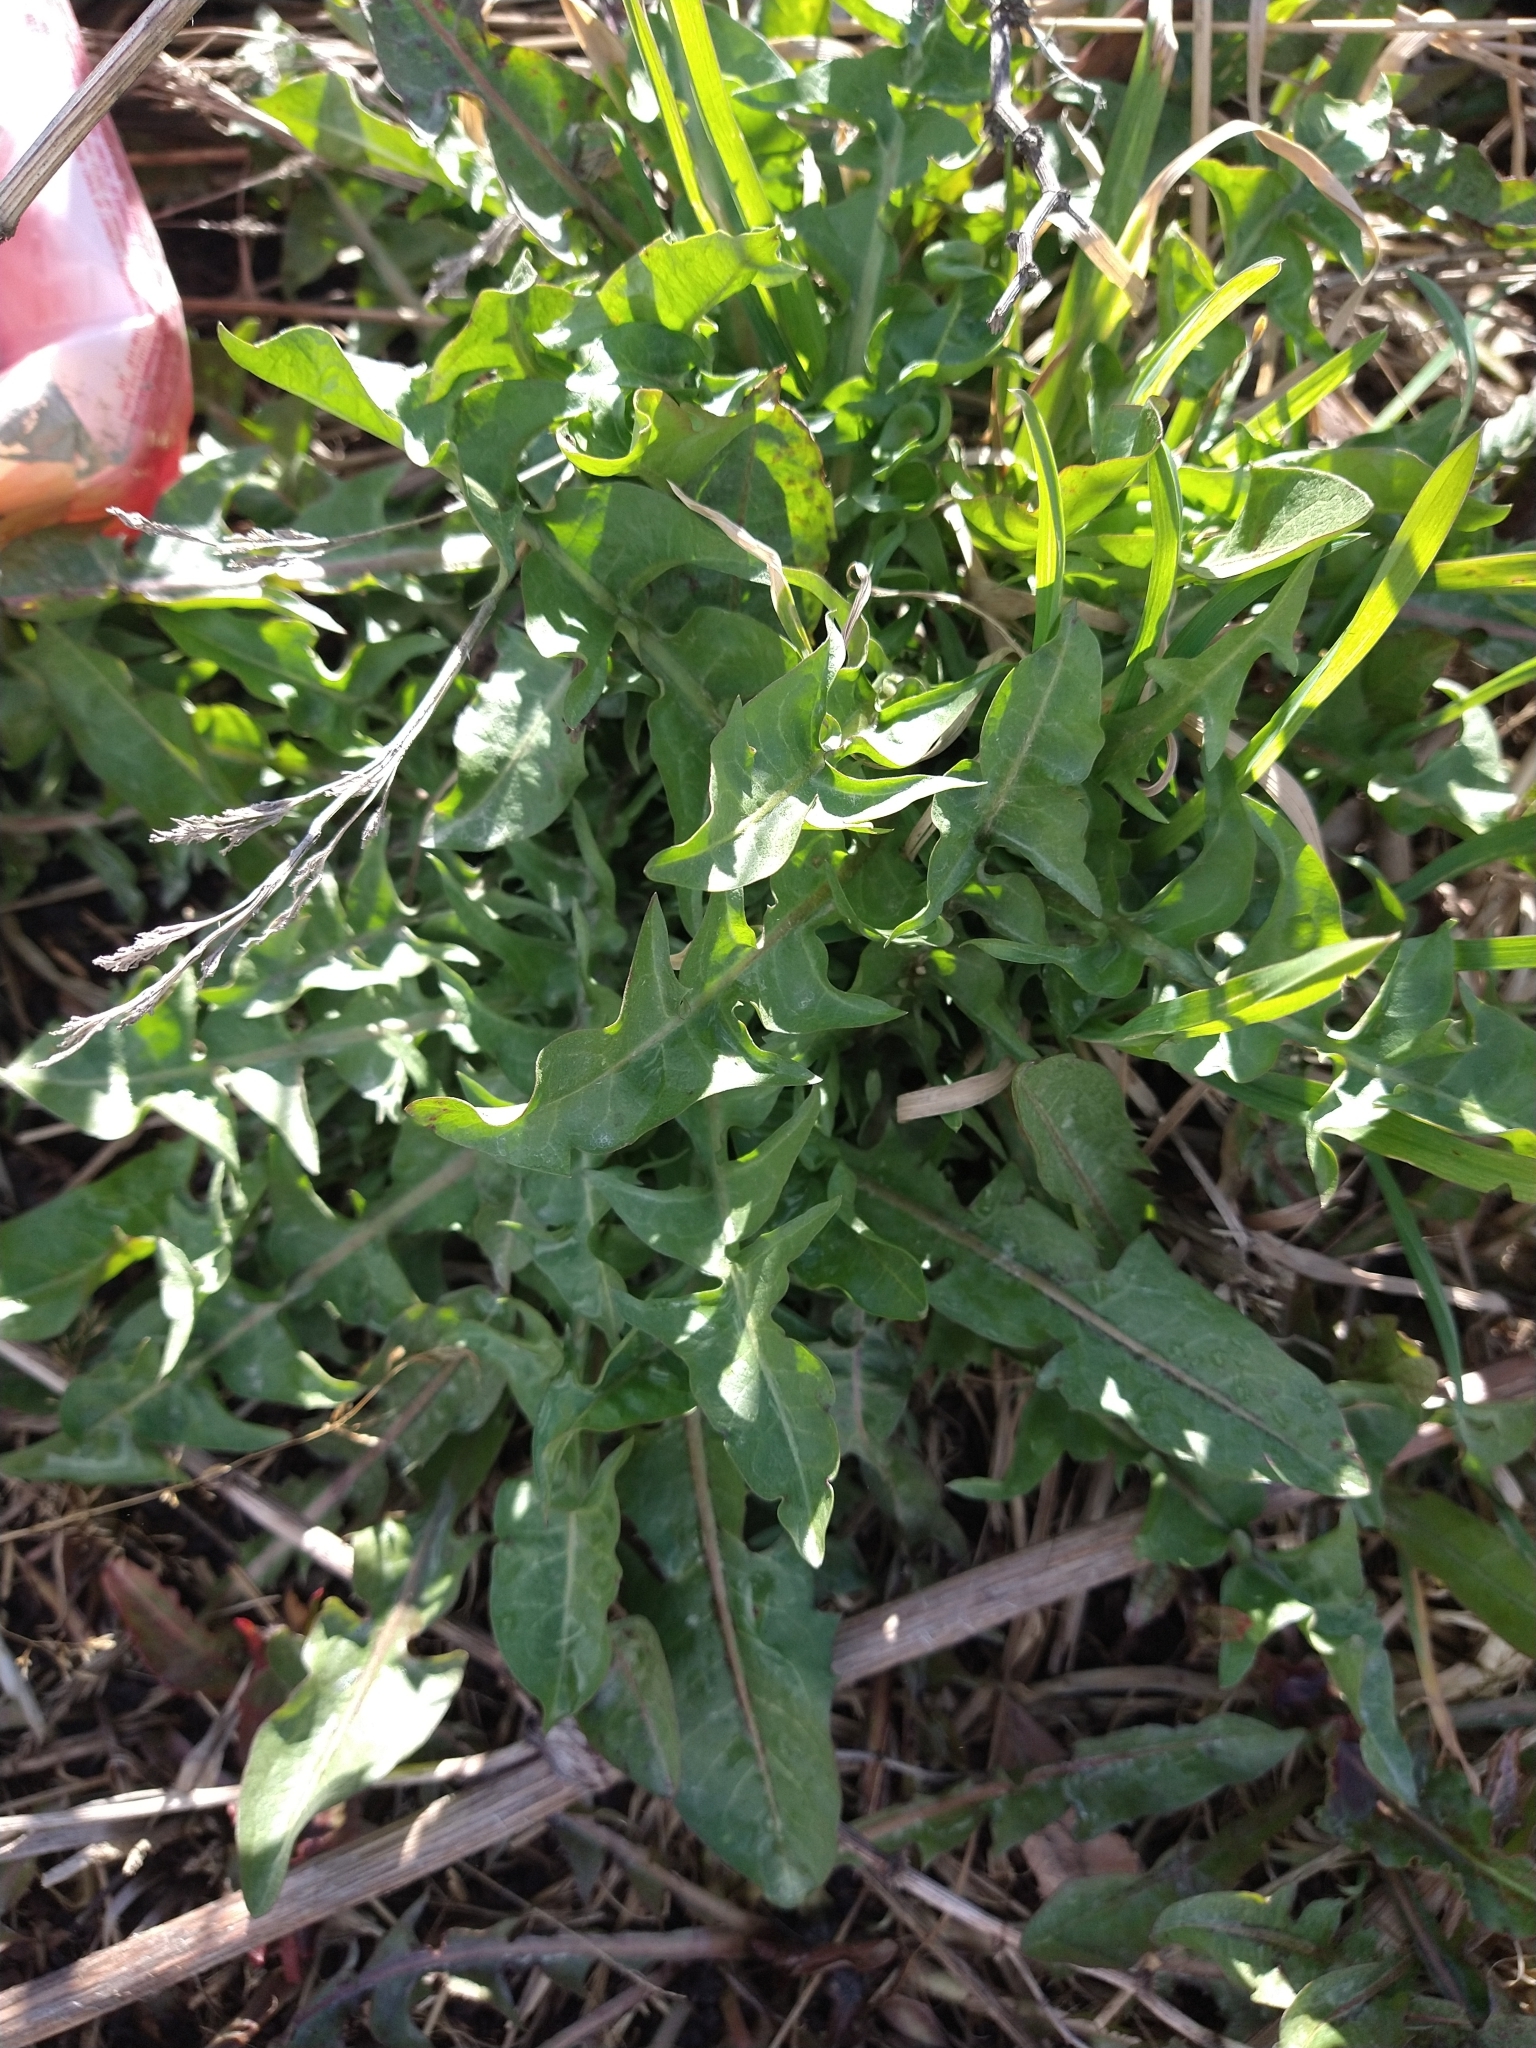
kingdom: Plantae
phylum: Tracheophyta
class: Magnoliopsida
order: Asterales
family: Asteraceae
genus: Taraxacum
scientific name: Taraxacum officinale
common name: Common dandelion
